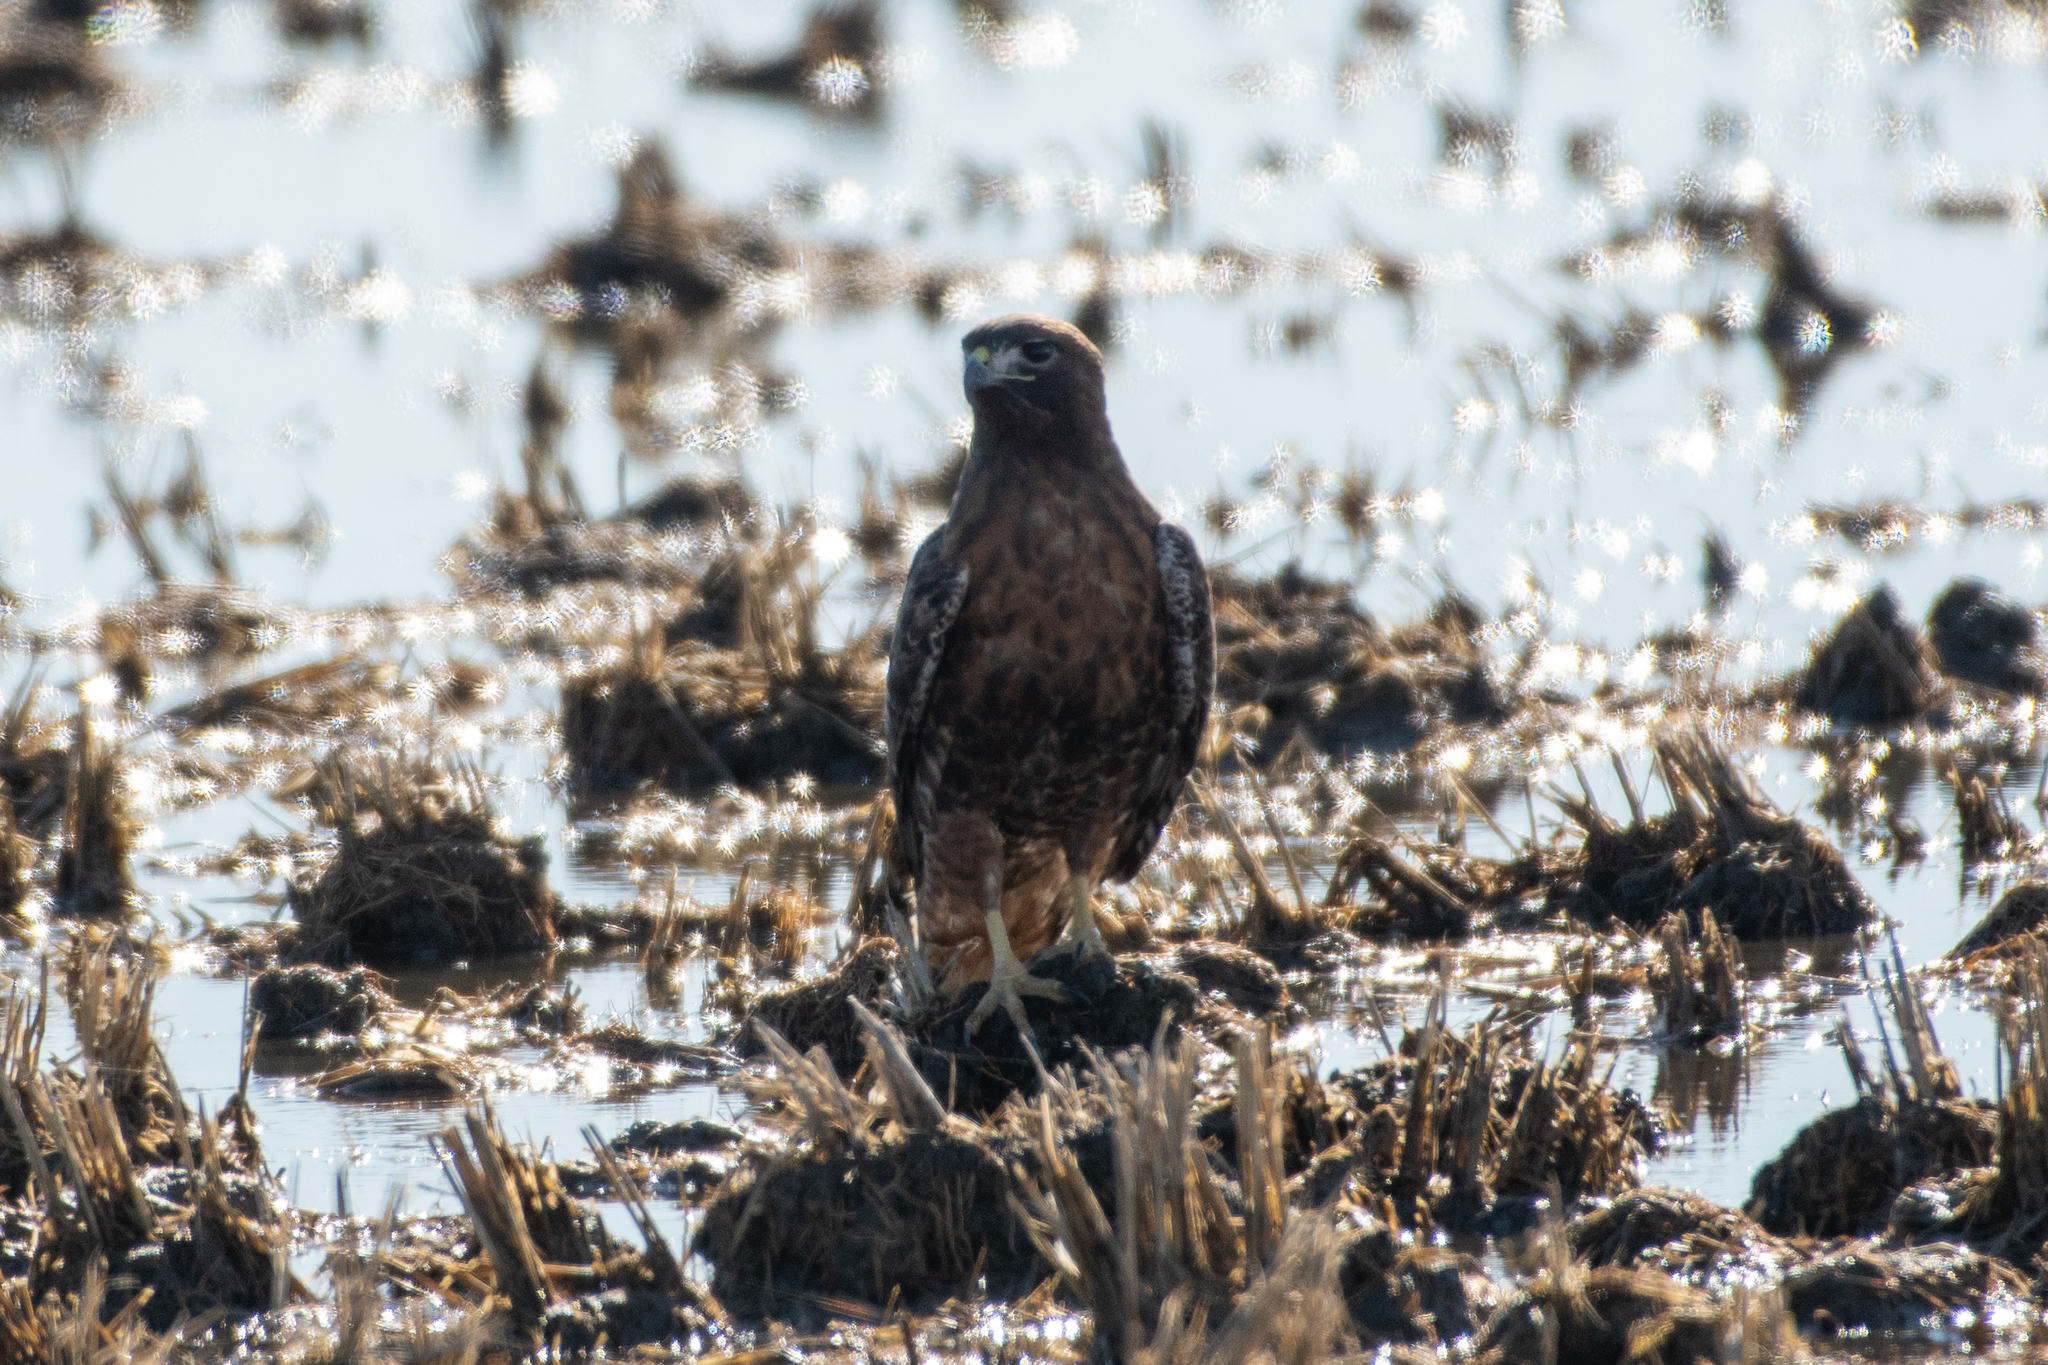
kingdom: Animalia
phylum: Chordata
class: Aves
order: Accipitriformes
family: Accipitridae
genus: Buteo
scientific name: Buteo jamaicensis
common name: Red-tailed hawk
